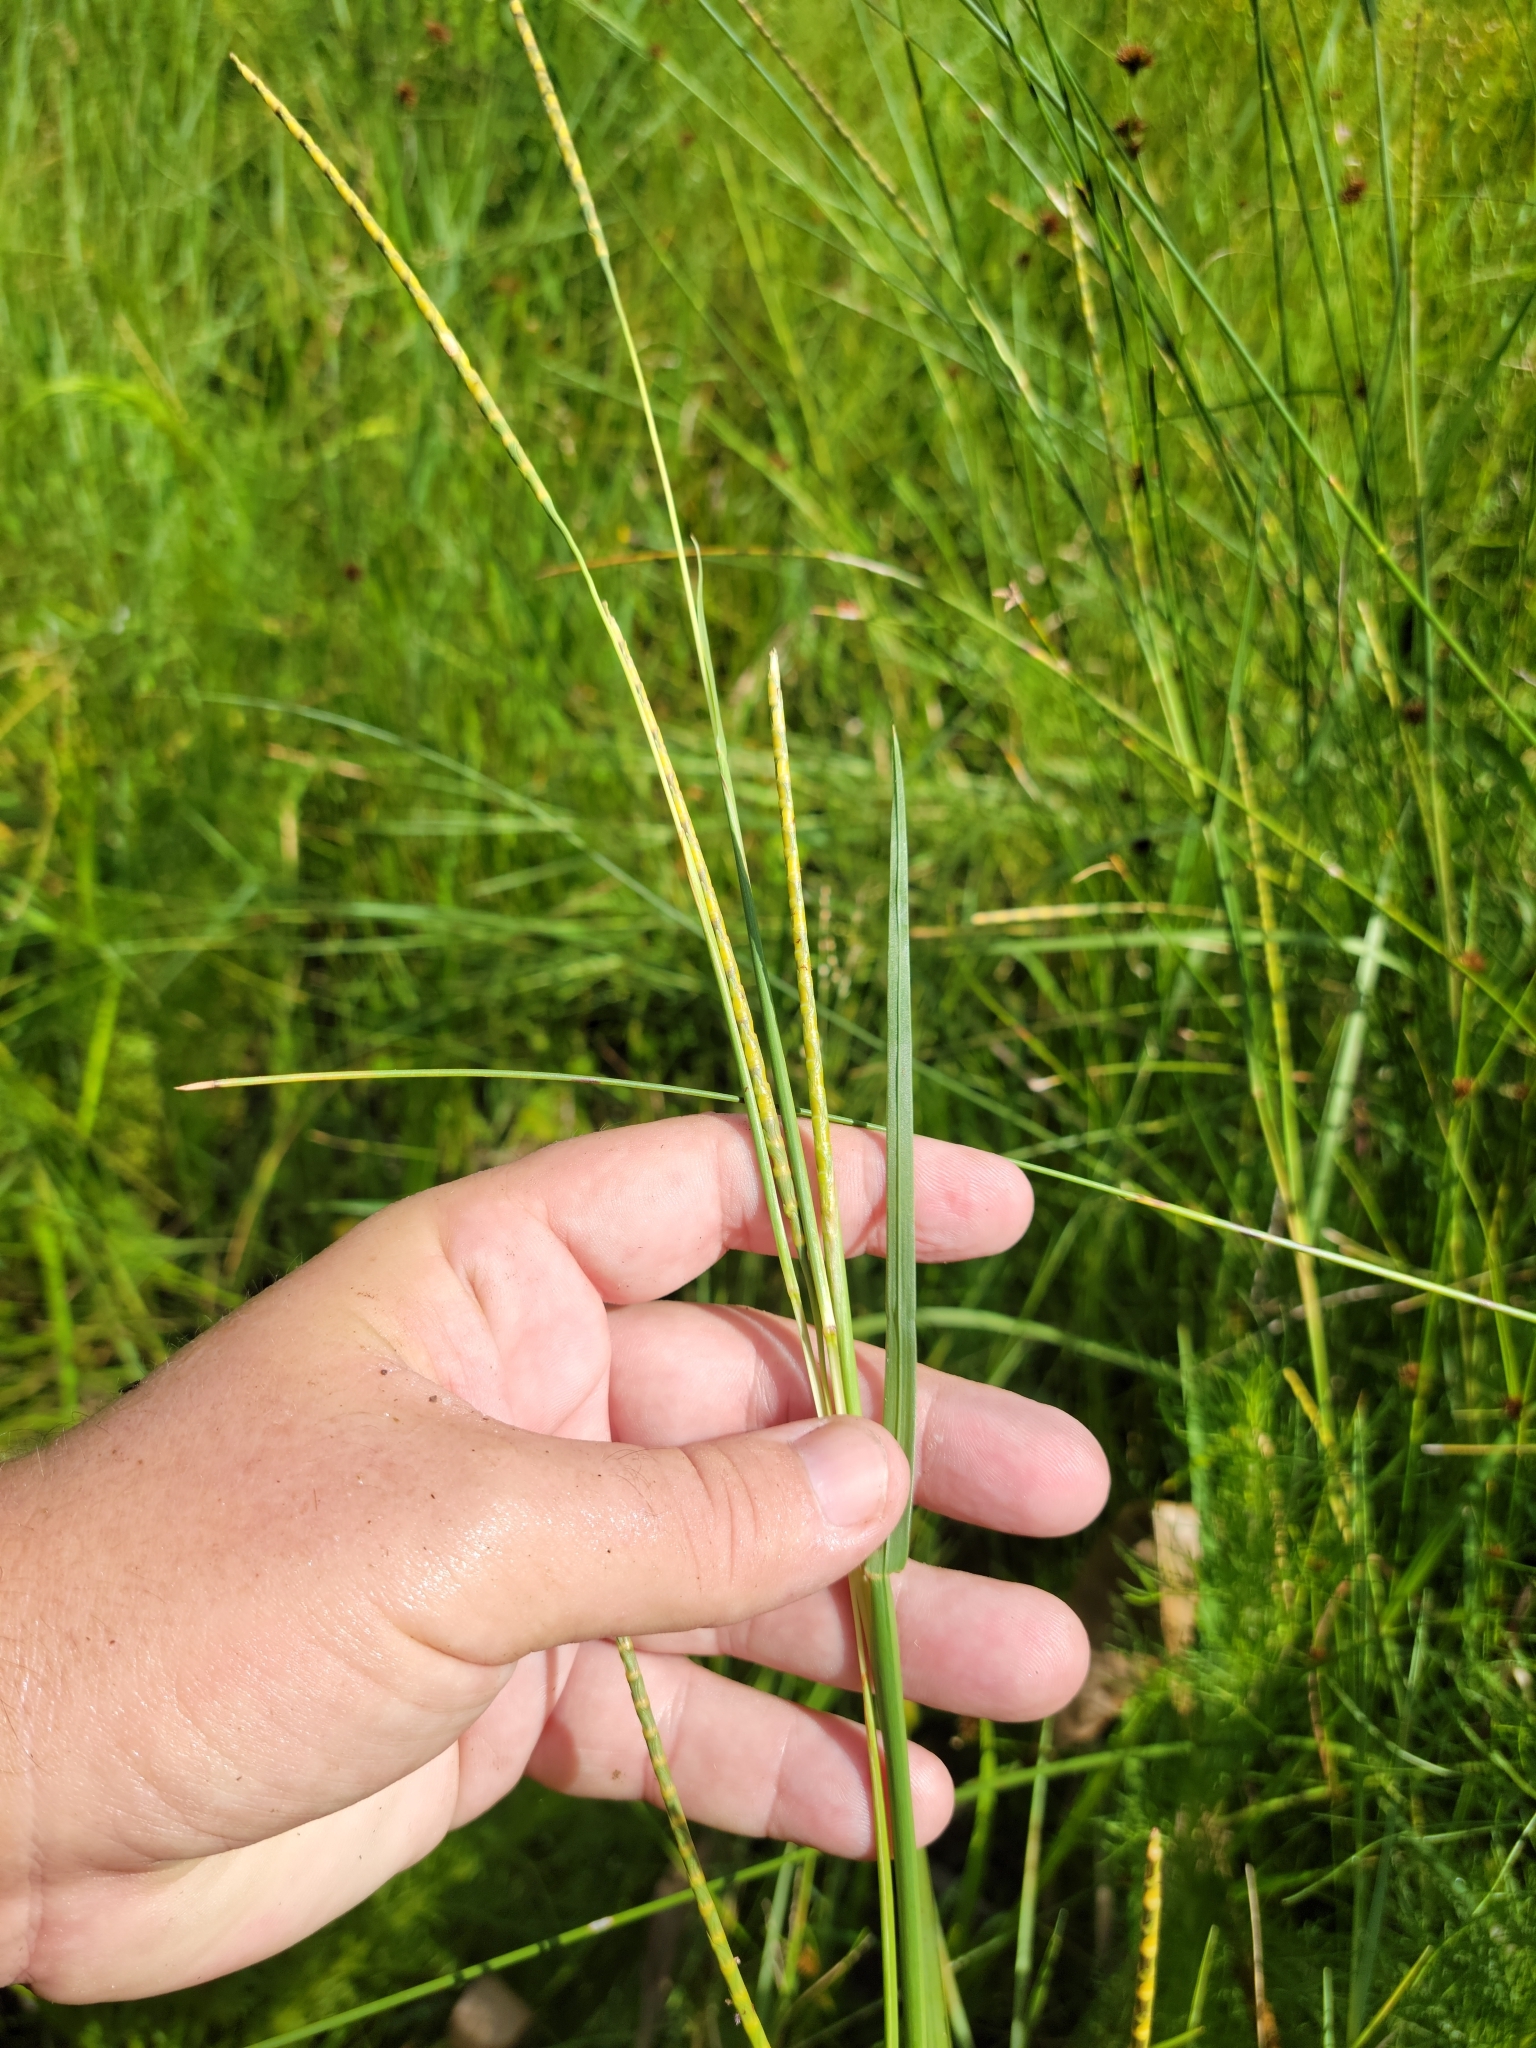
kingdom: Plantae
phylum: Tracheophyta
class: Liliopsida
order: Poales
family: Poaceae
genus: Rottboellia
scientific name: Rottboellia tuberculosa
